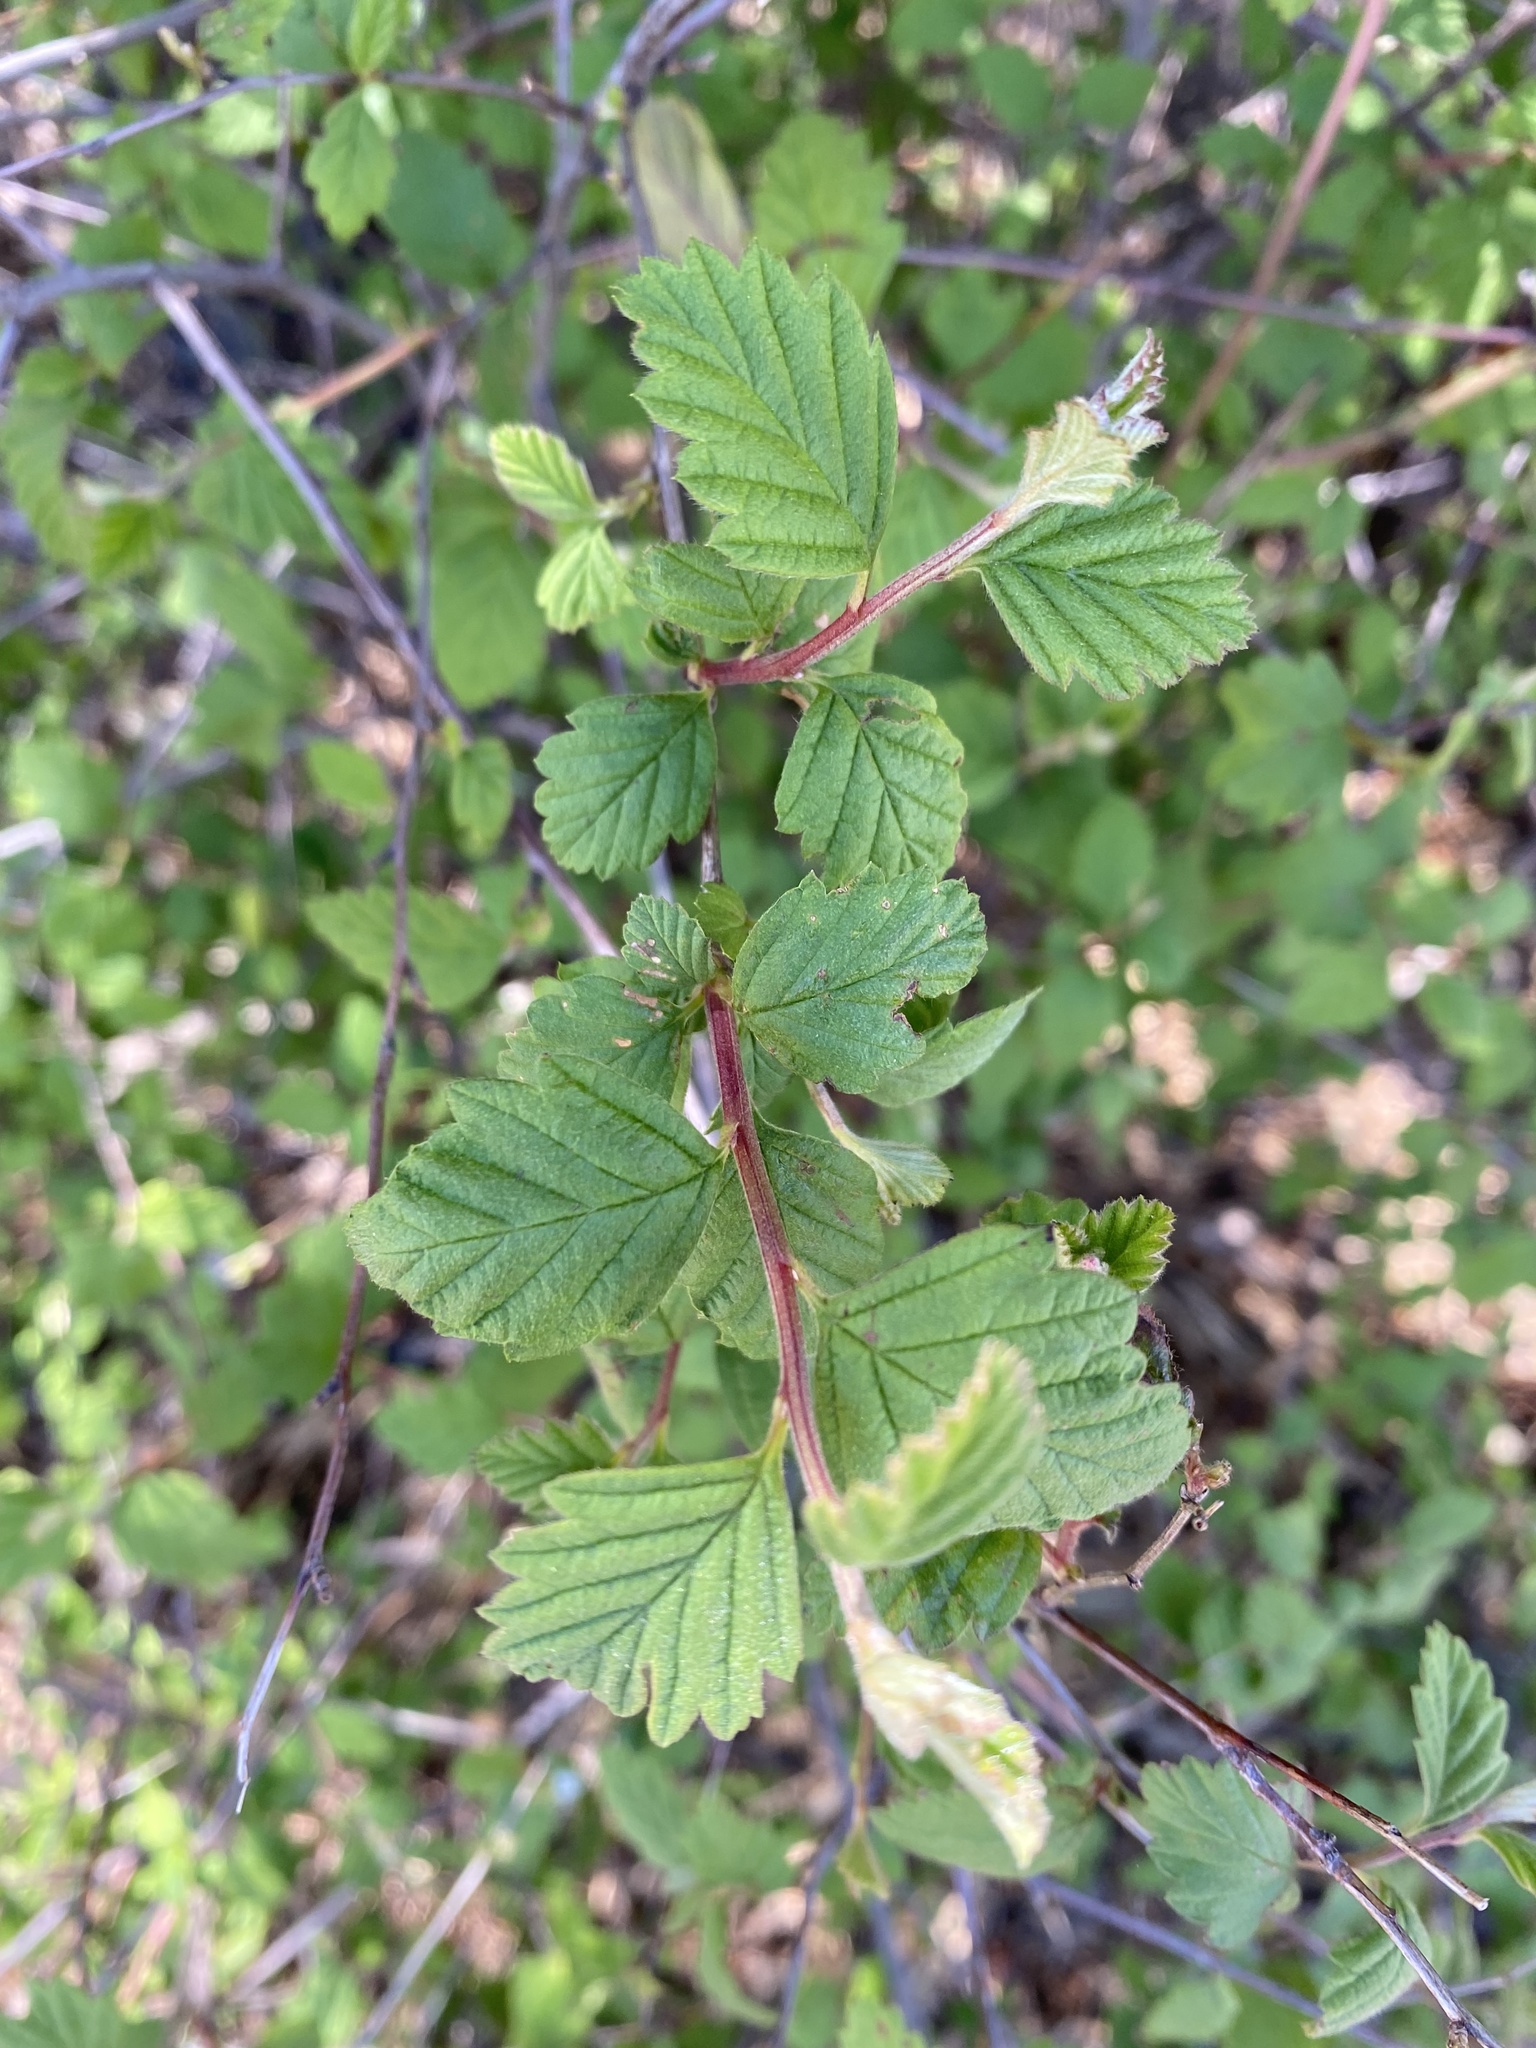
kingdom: Plantae
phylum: Tracheophyta
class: Magnoliopsida
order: Rosales
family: Rosaceae
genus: Holodiscus
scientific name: Holodiscus discolor
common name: Oceanspray
